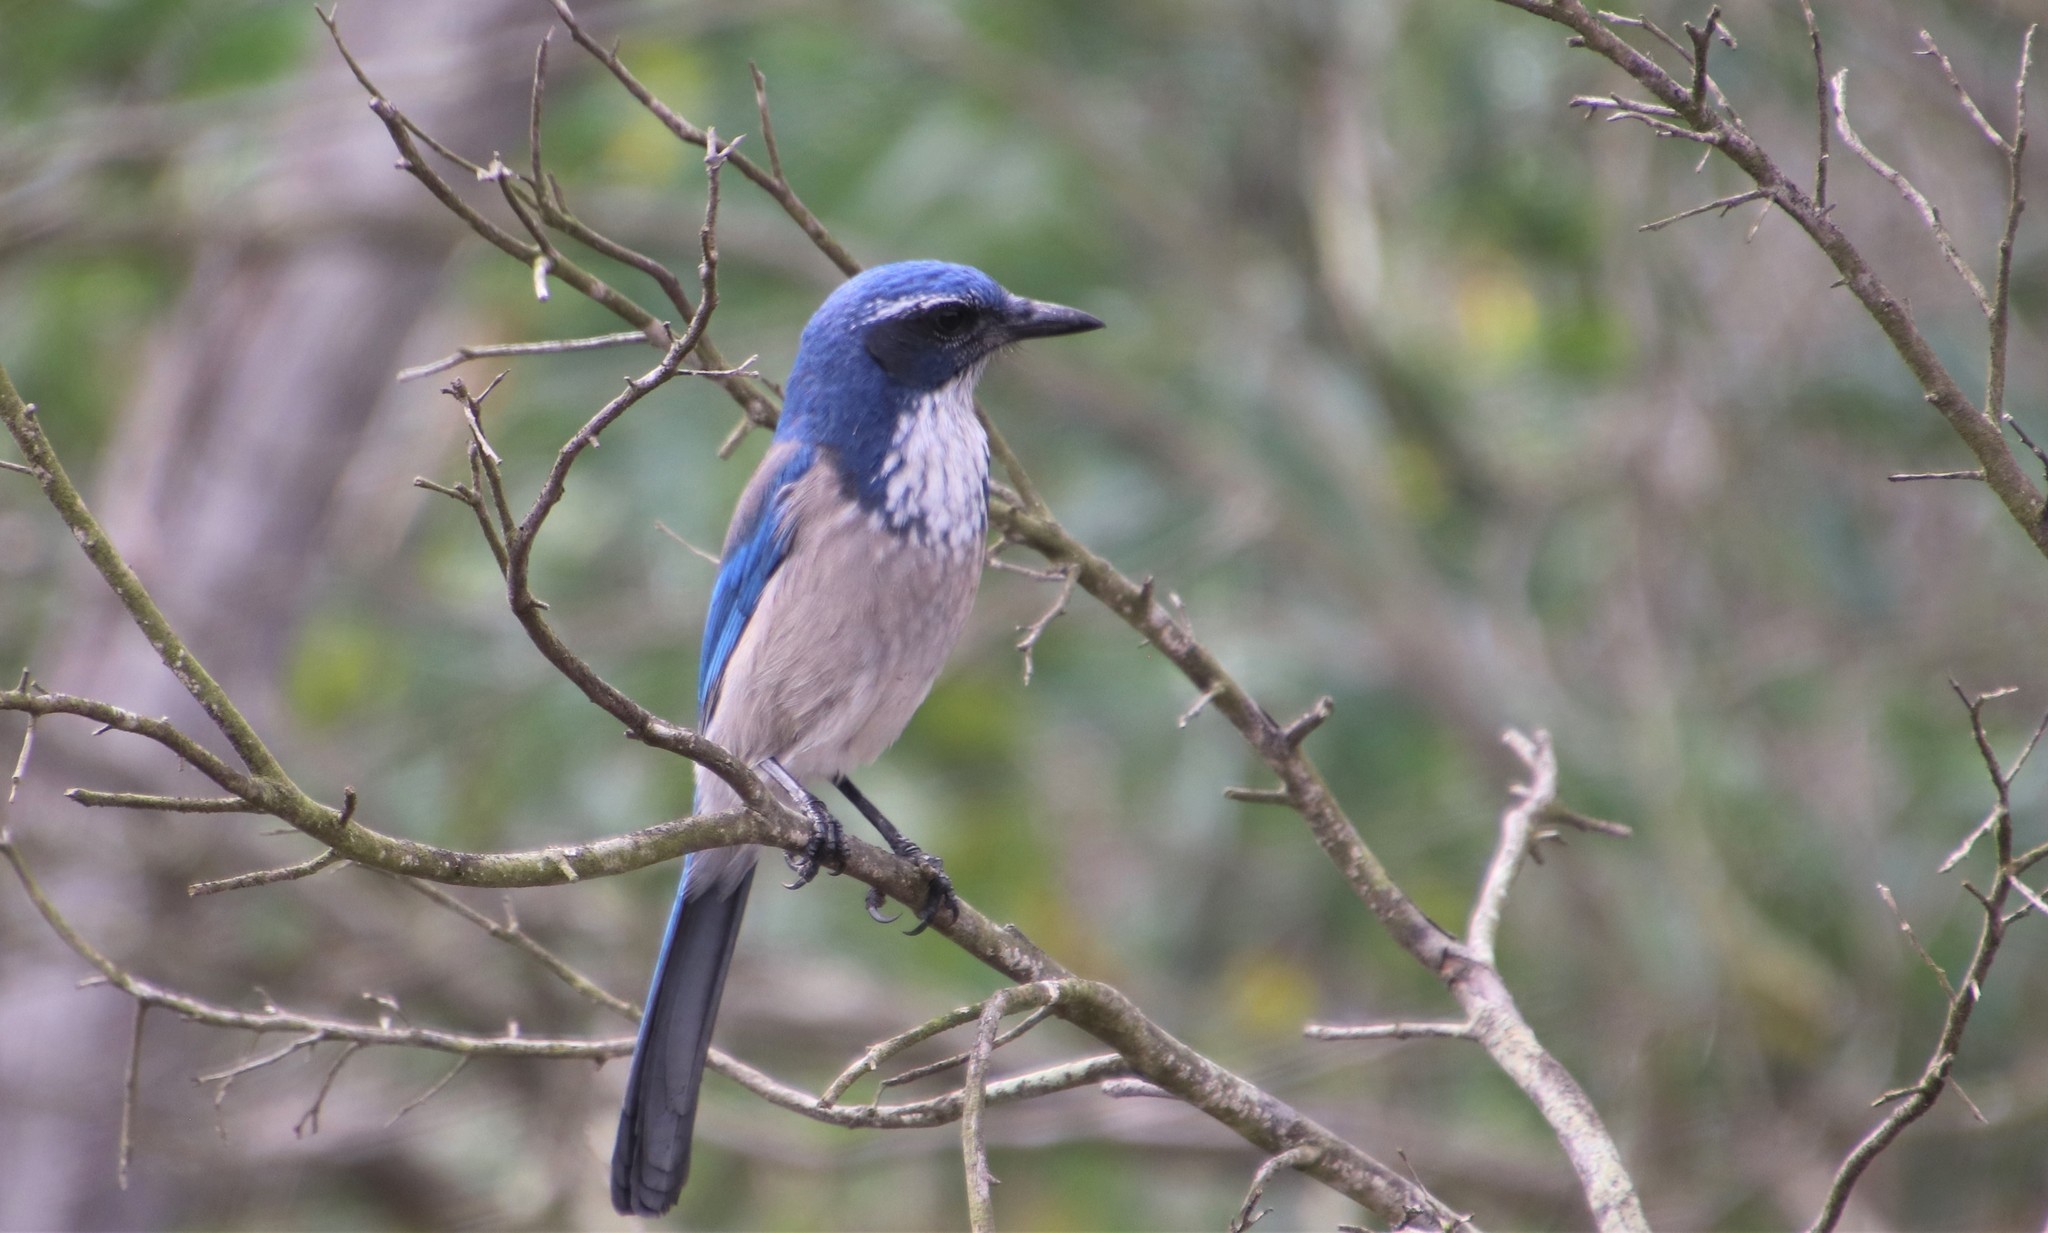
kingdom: Animalia
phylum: Chordata
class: Aves
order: Passeriformes
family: Corvidae
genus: Aphelocoma
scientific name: Aphelocoma californica
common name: California scrub-jay
